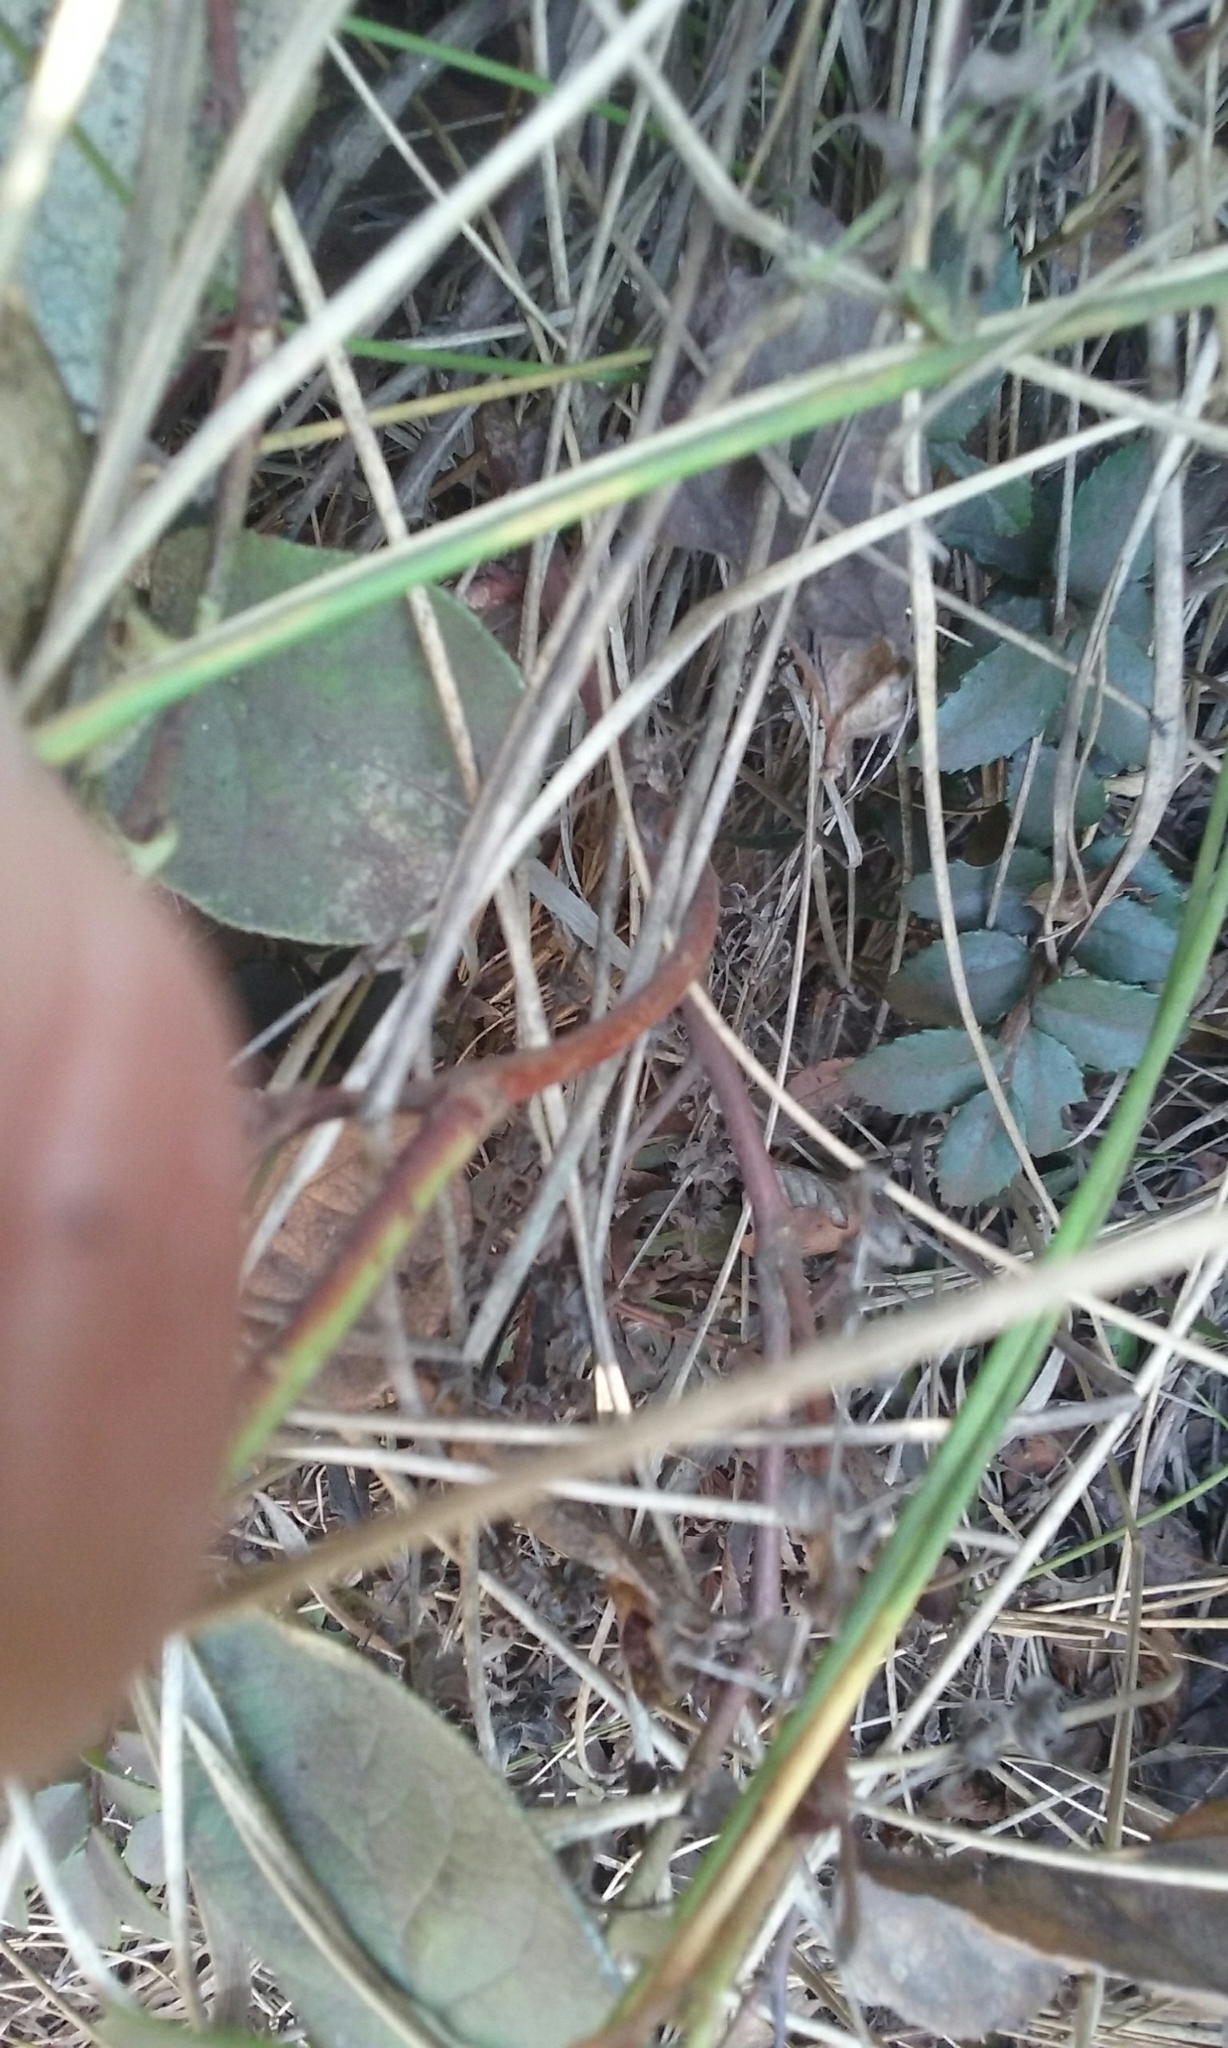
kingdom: Plantae
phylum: Tracheophyta
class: Magnoliopsida
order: Ericales
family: Ericaceae
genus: Gaultheria
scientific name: Gaultheria shallon
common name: Shallon
